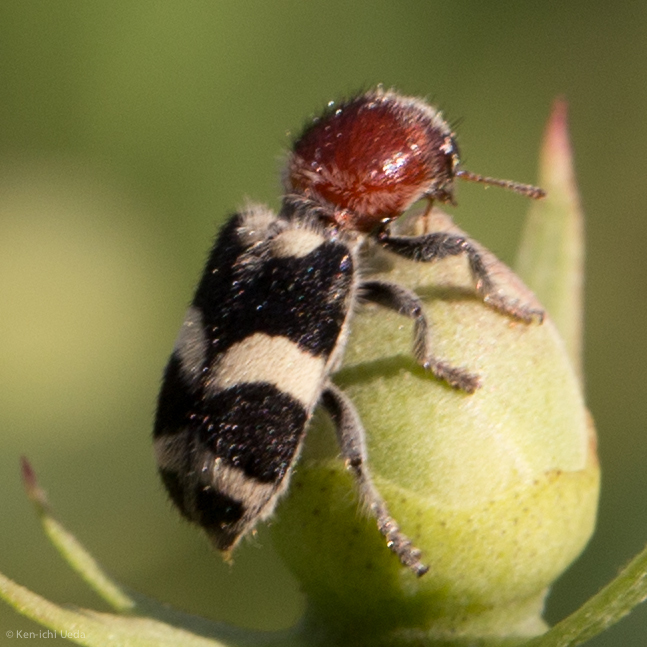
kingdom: Animalia
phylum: Arthropoda
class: Insecta
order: Coleoptera
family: Cleridae
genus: Enoclerus
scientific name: Enoclerus laetus
